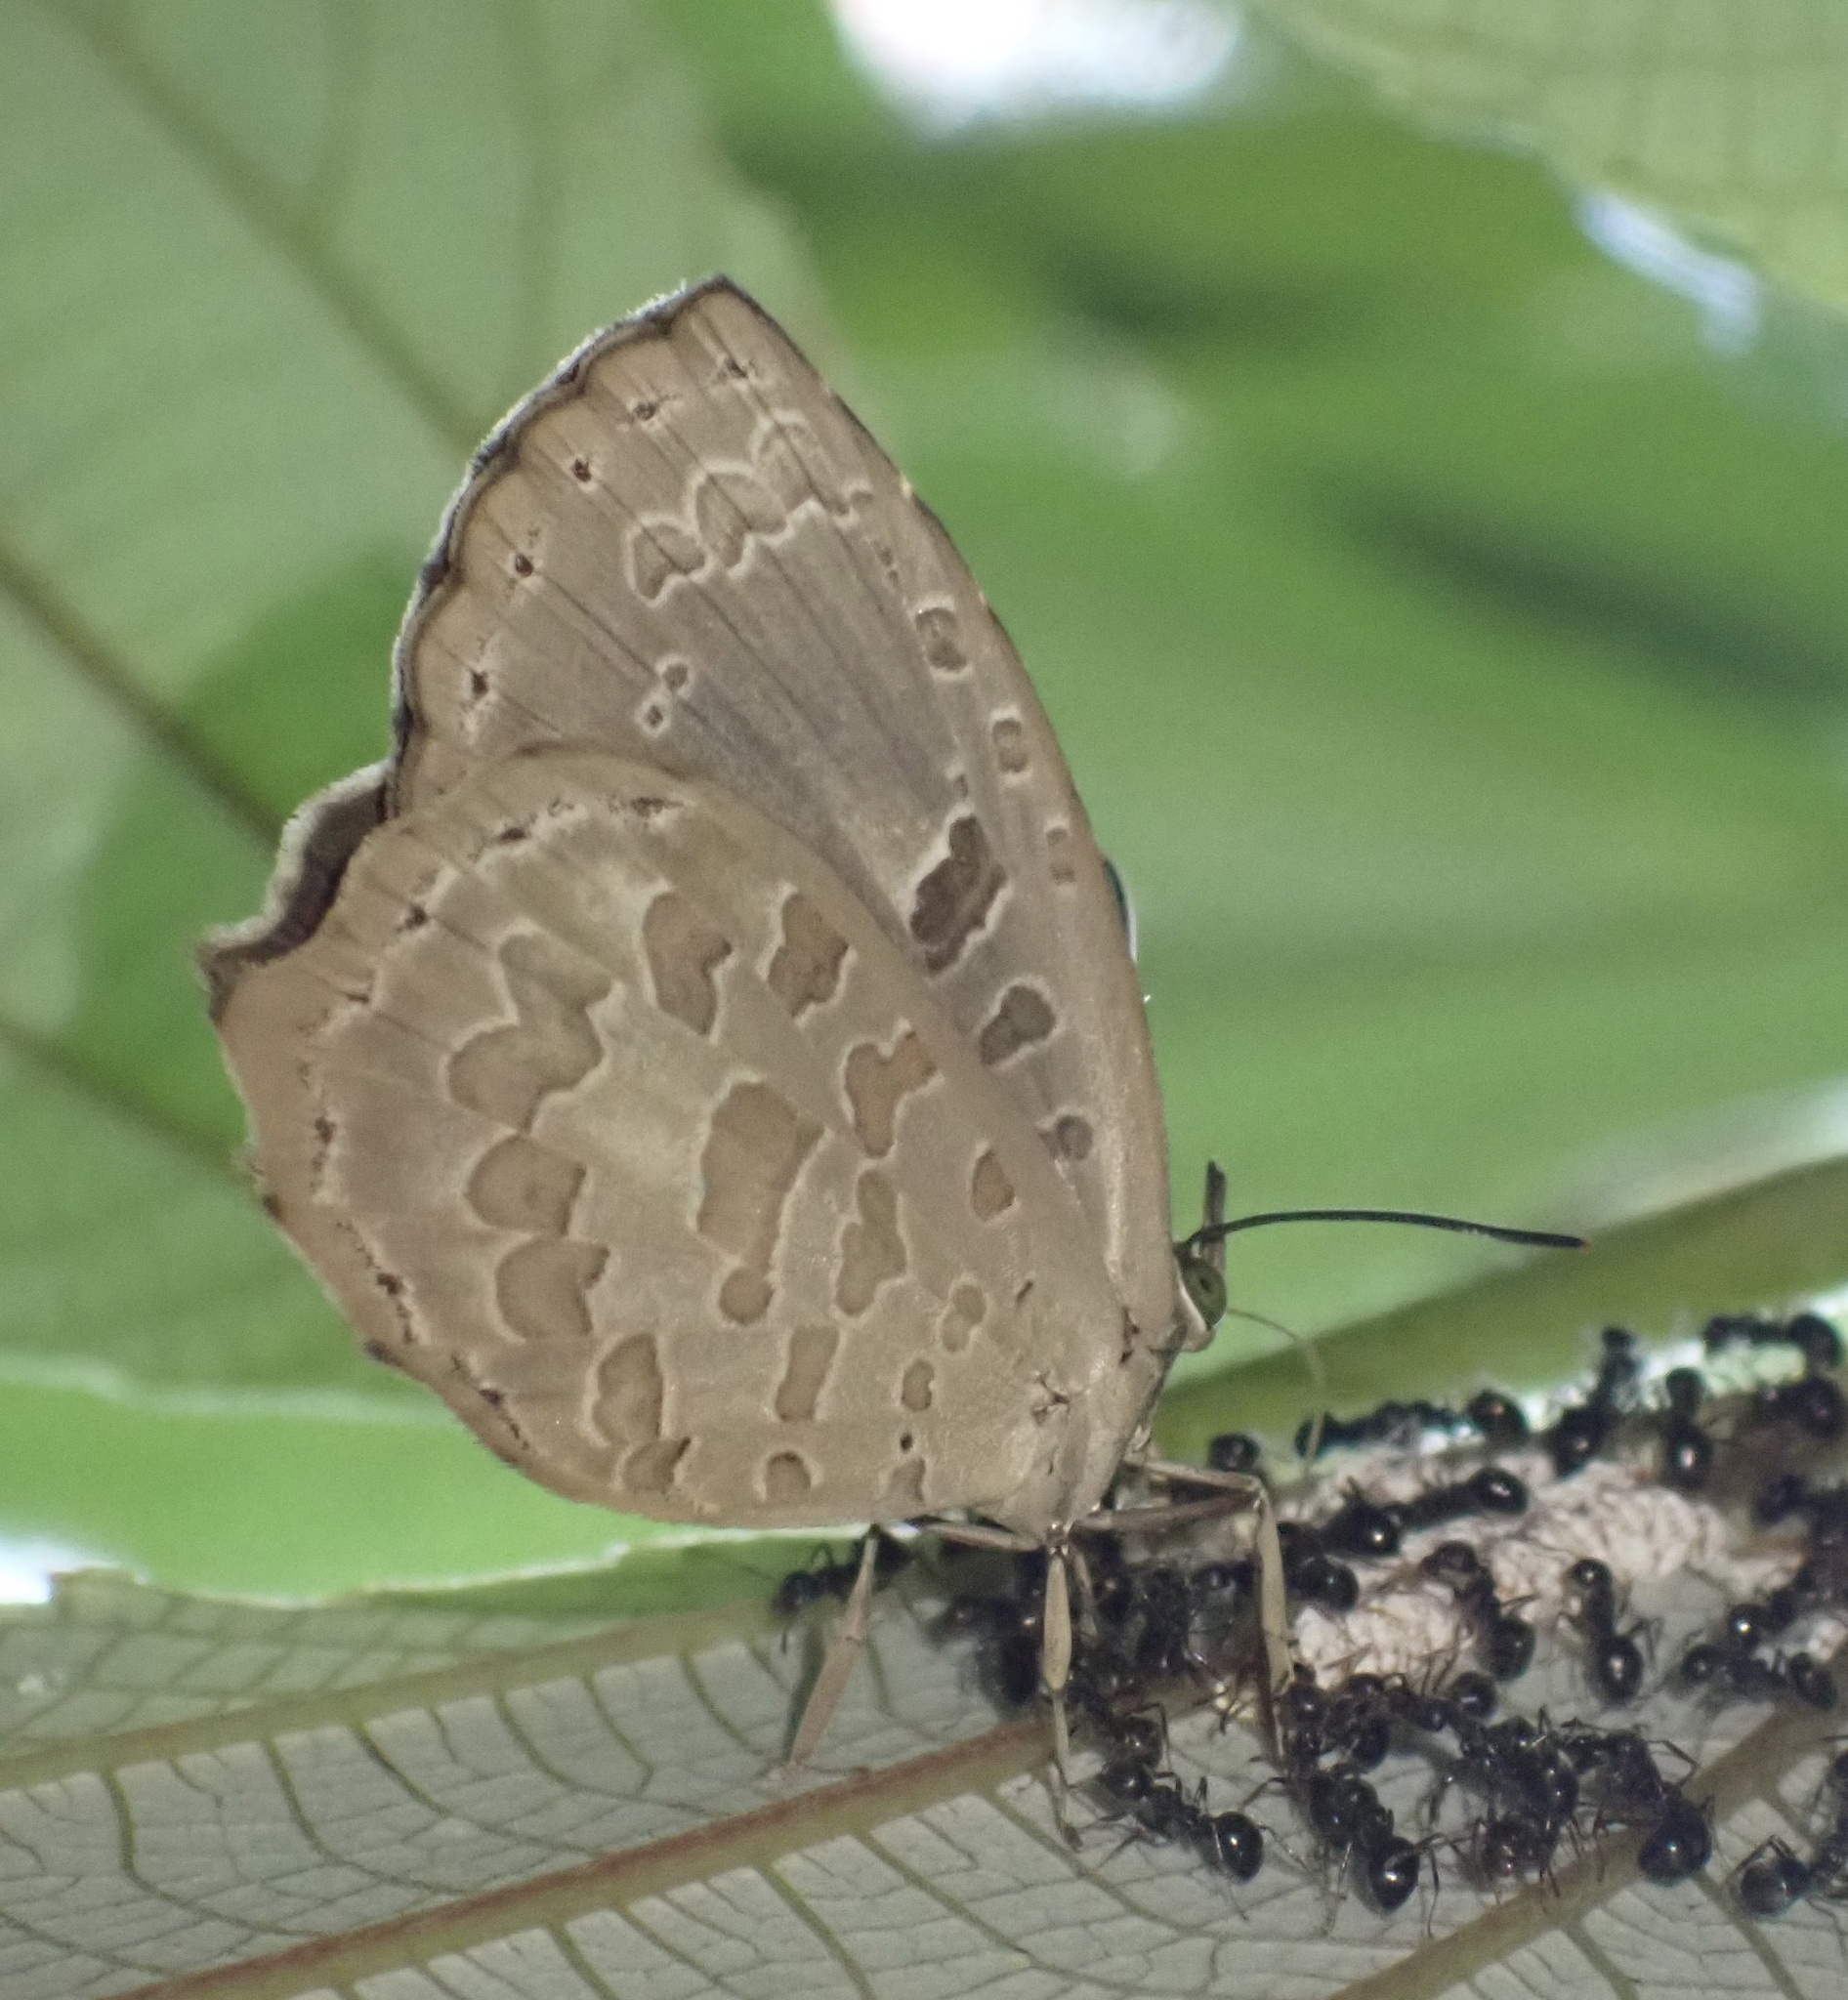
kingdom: Animalia
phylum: Arthropoda
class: Insecta
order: Lepidoptera
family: Lycaenidae
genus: Miletus
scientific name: Miletus leos
